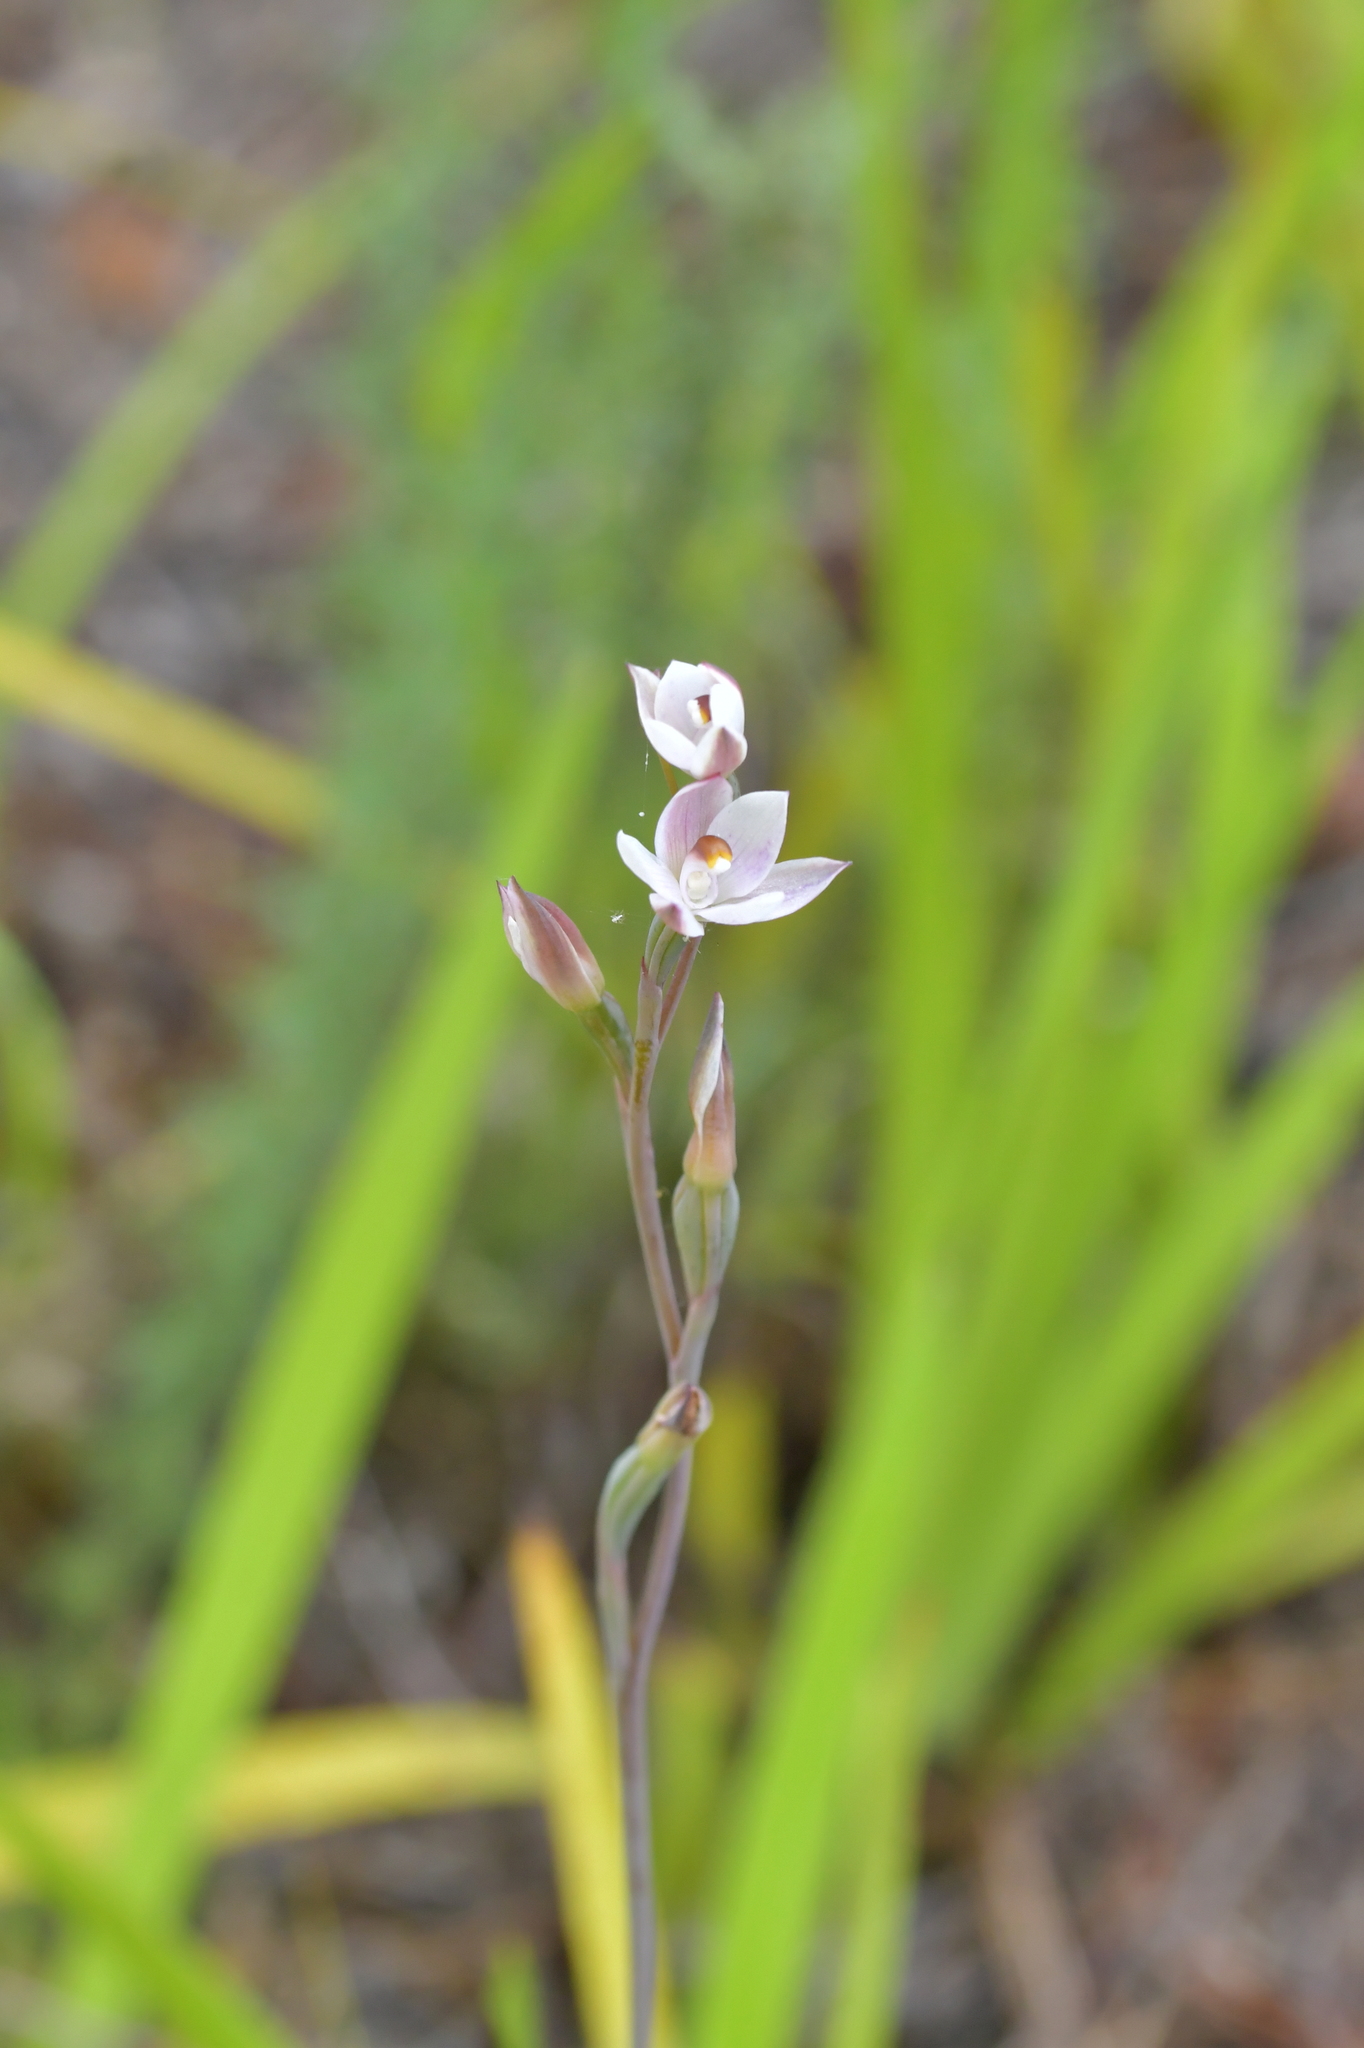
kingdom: Plantae
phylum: Tracheophyta
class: Liliopsida
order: Asparagales
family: Orchidaceae
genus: Thelymitra
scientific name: Thelymitra longifolia
